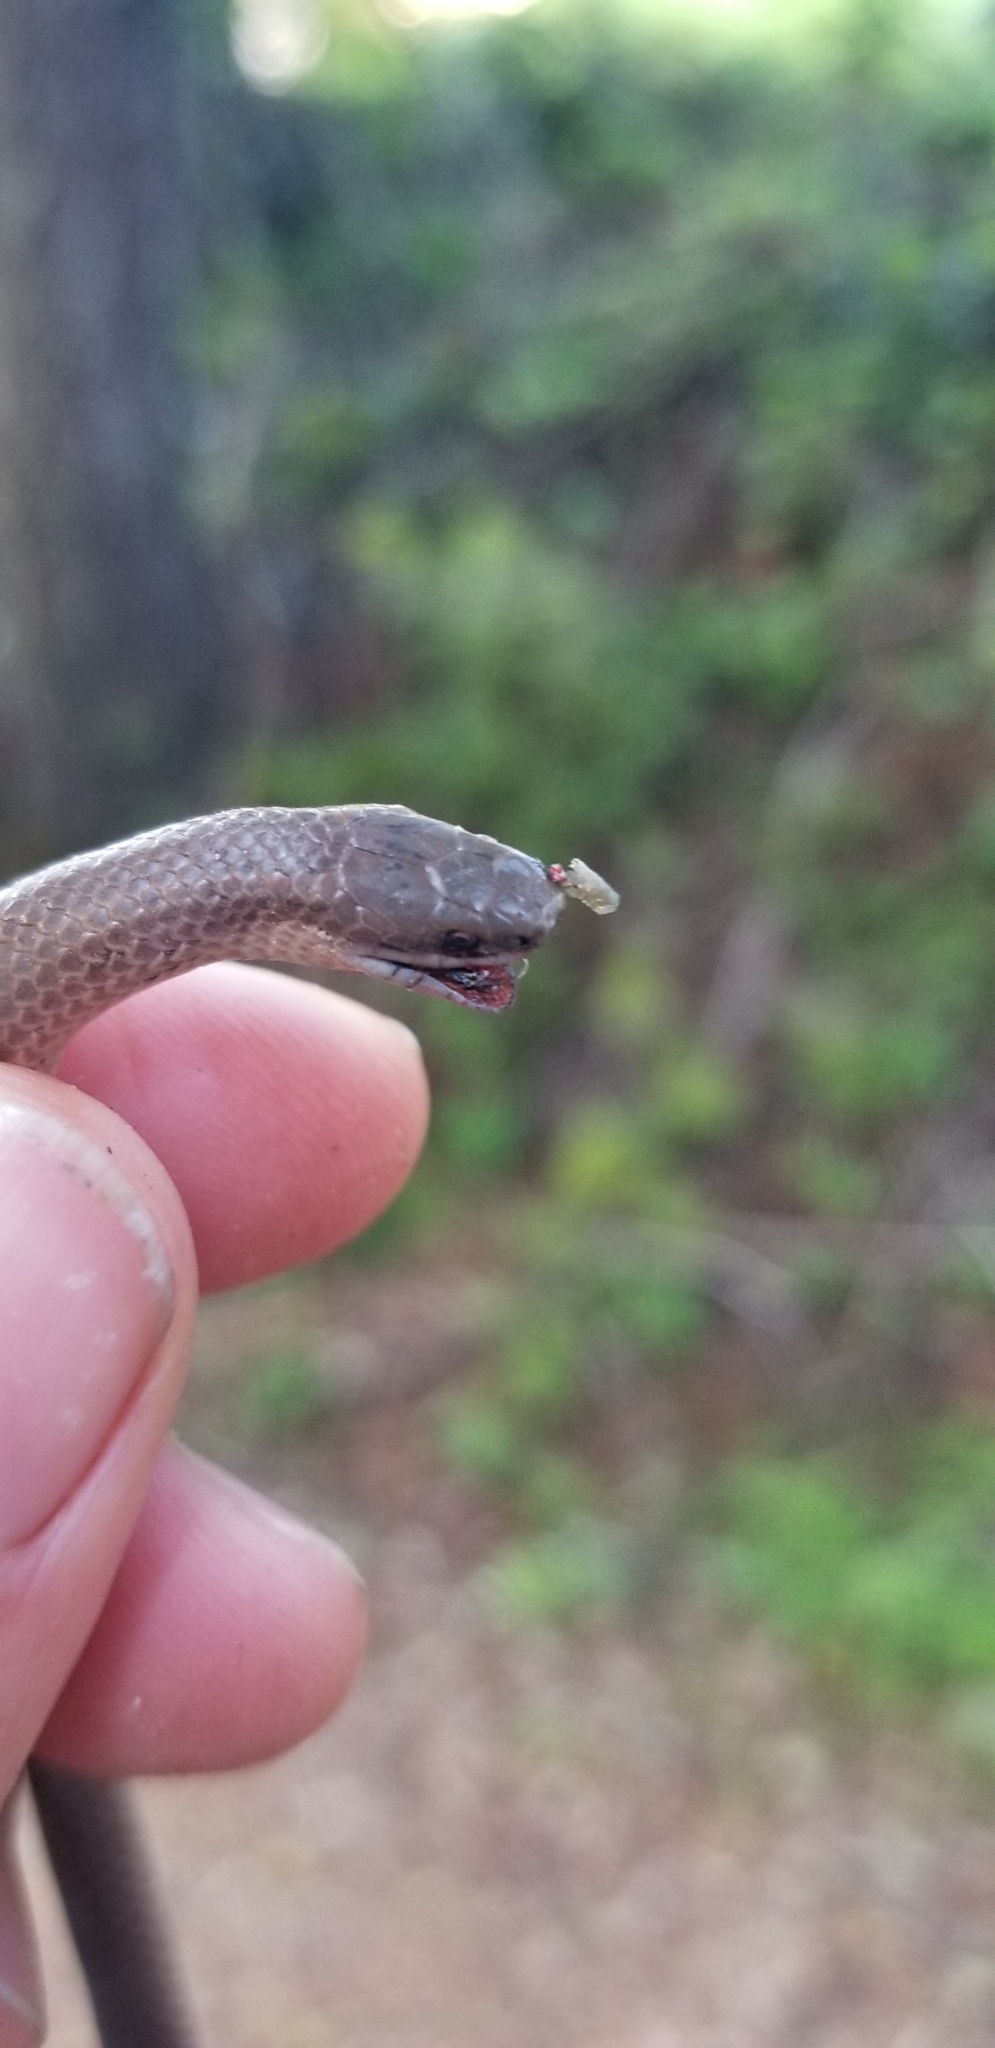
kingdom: Animalia
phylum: Chordata
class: Squamata
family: Colubridae
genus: Contia
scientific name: Contia longicaudae
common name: Forest sharp-tailed snake
